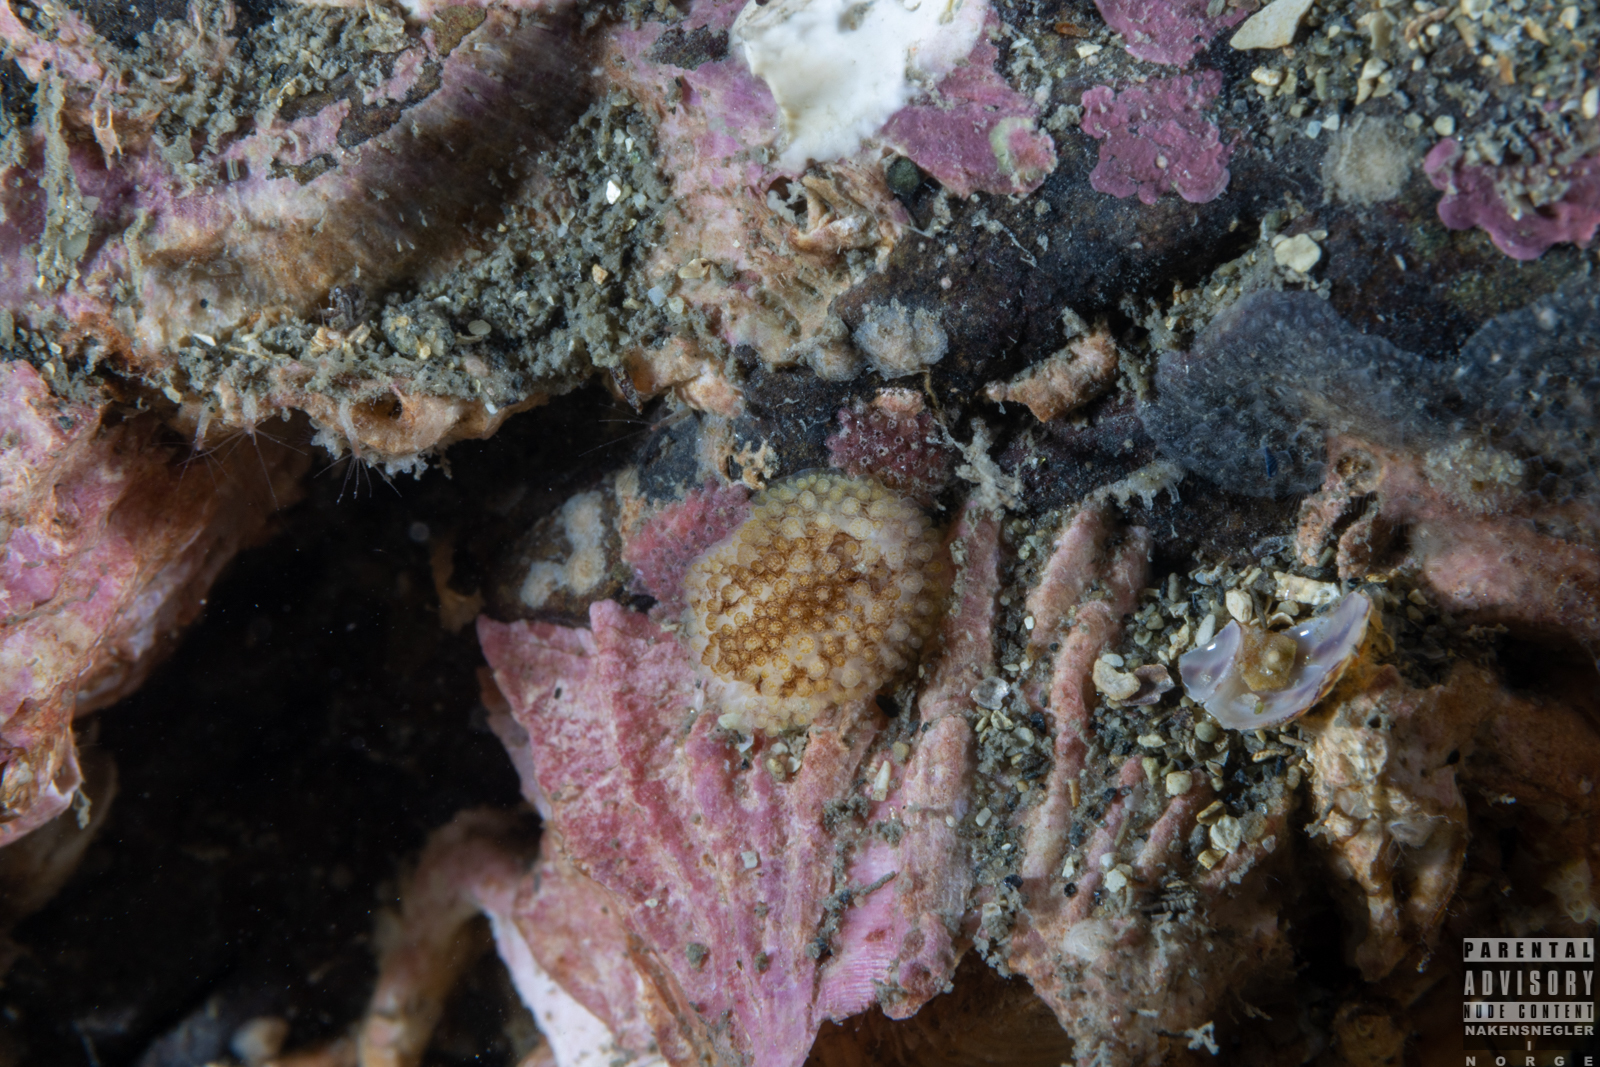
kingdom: Animalia
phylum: Mollusca
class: Gastropoda
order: Nudibranchia
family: Onchidorididae
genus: Onchidoris
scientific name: Onchidoris bilamellata
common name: Barnacle-eating onchidoris
